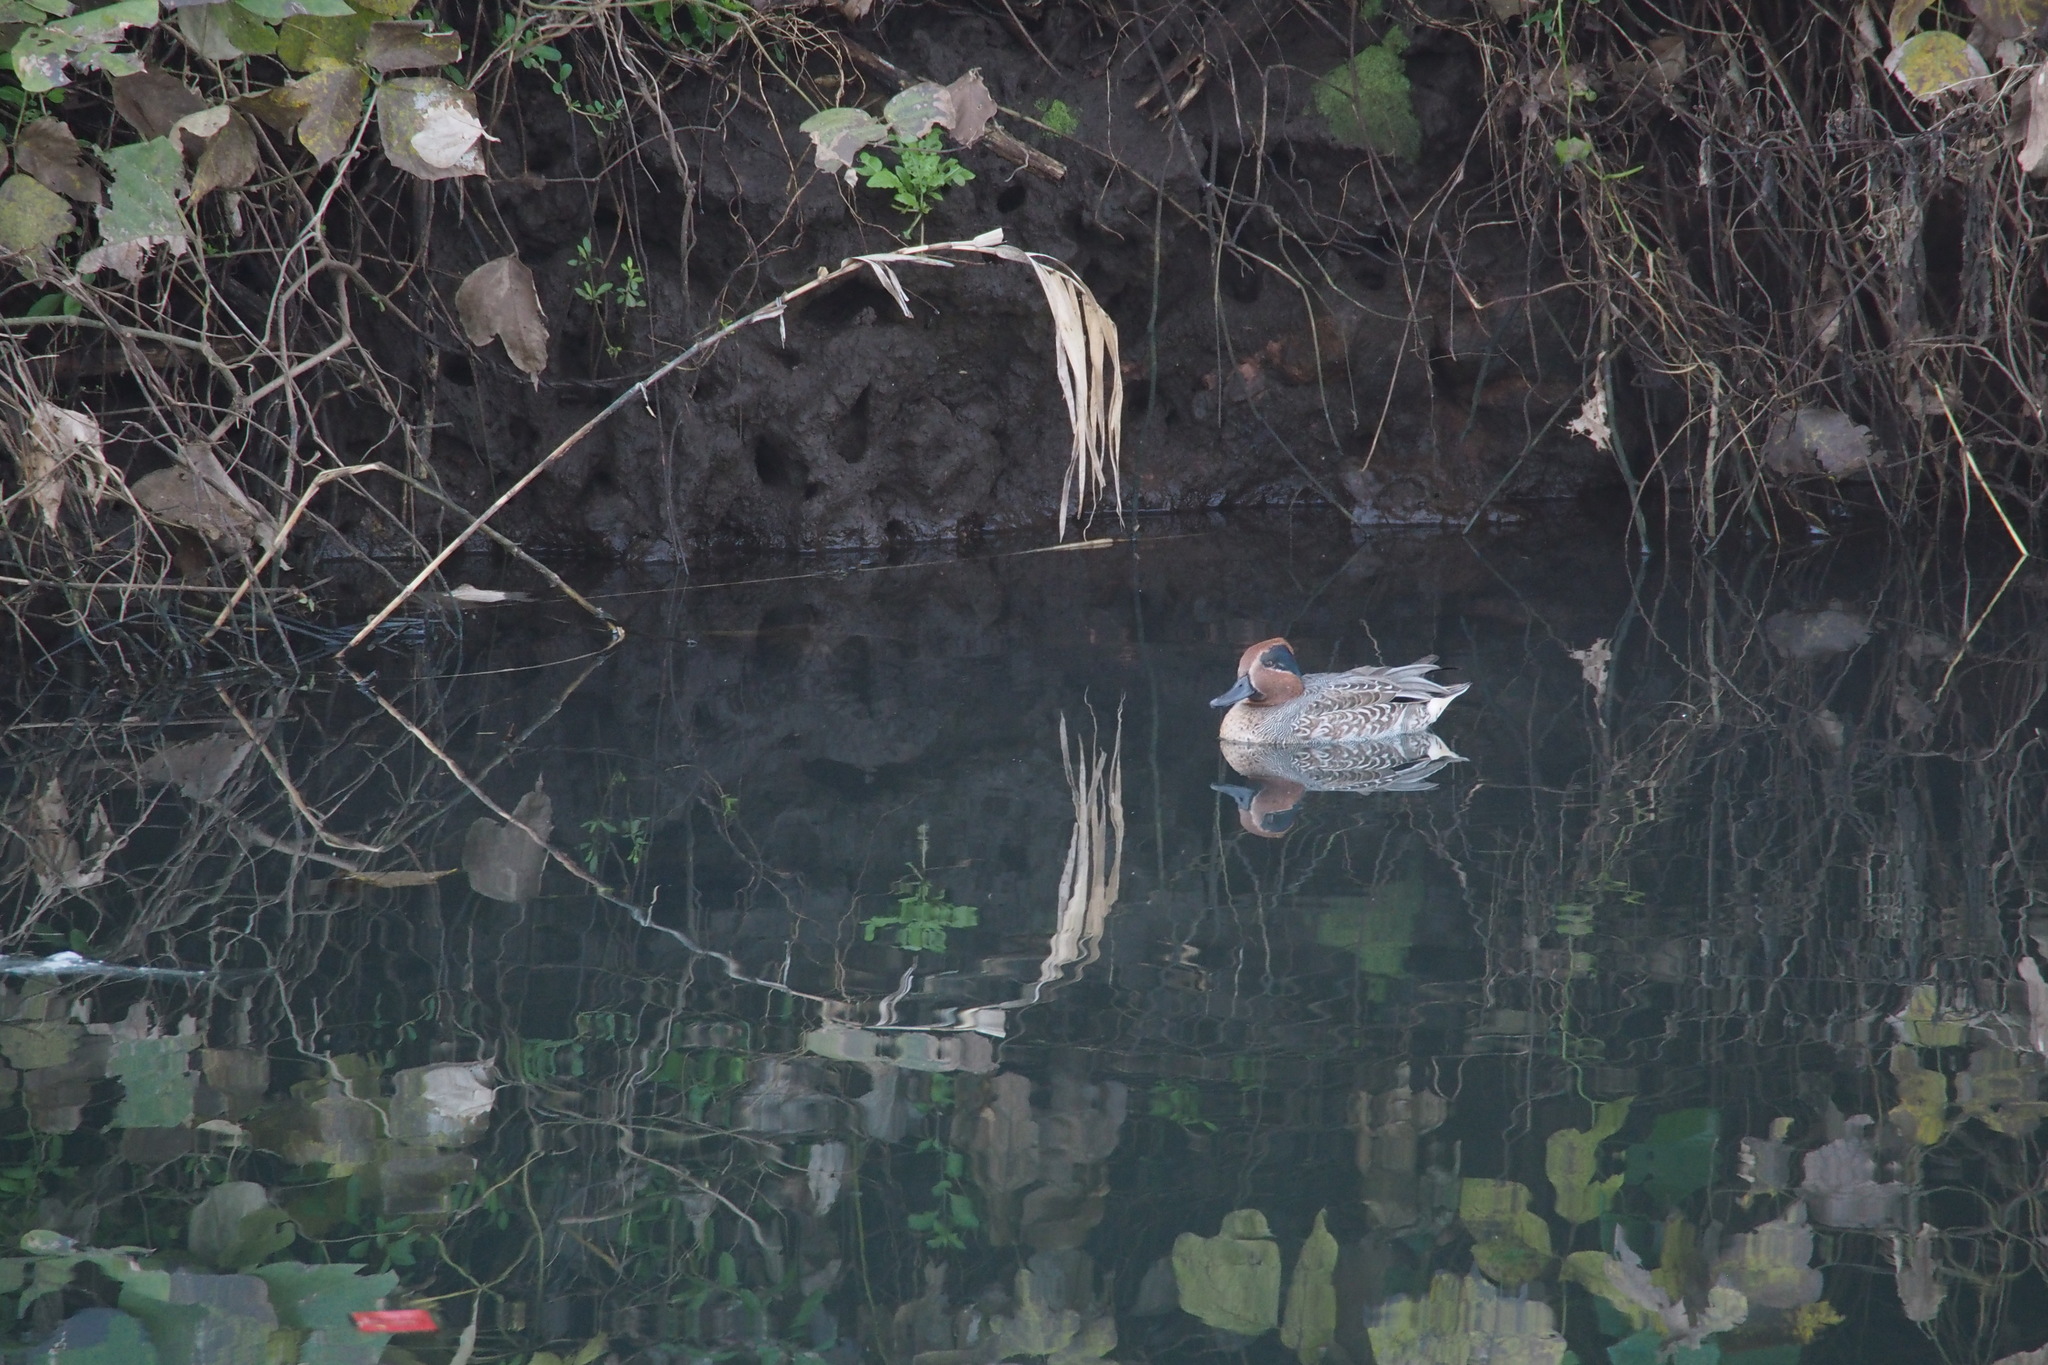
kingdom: Animalia
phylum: Chordata
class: Aves
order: Anseriformes
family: Anatidae
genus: Anas
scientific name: Anas crecca
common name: Eurasian teal
